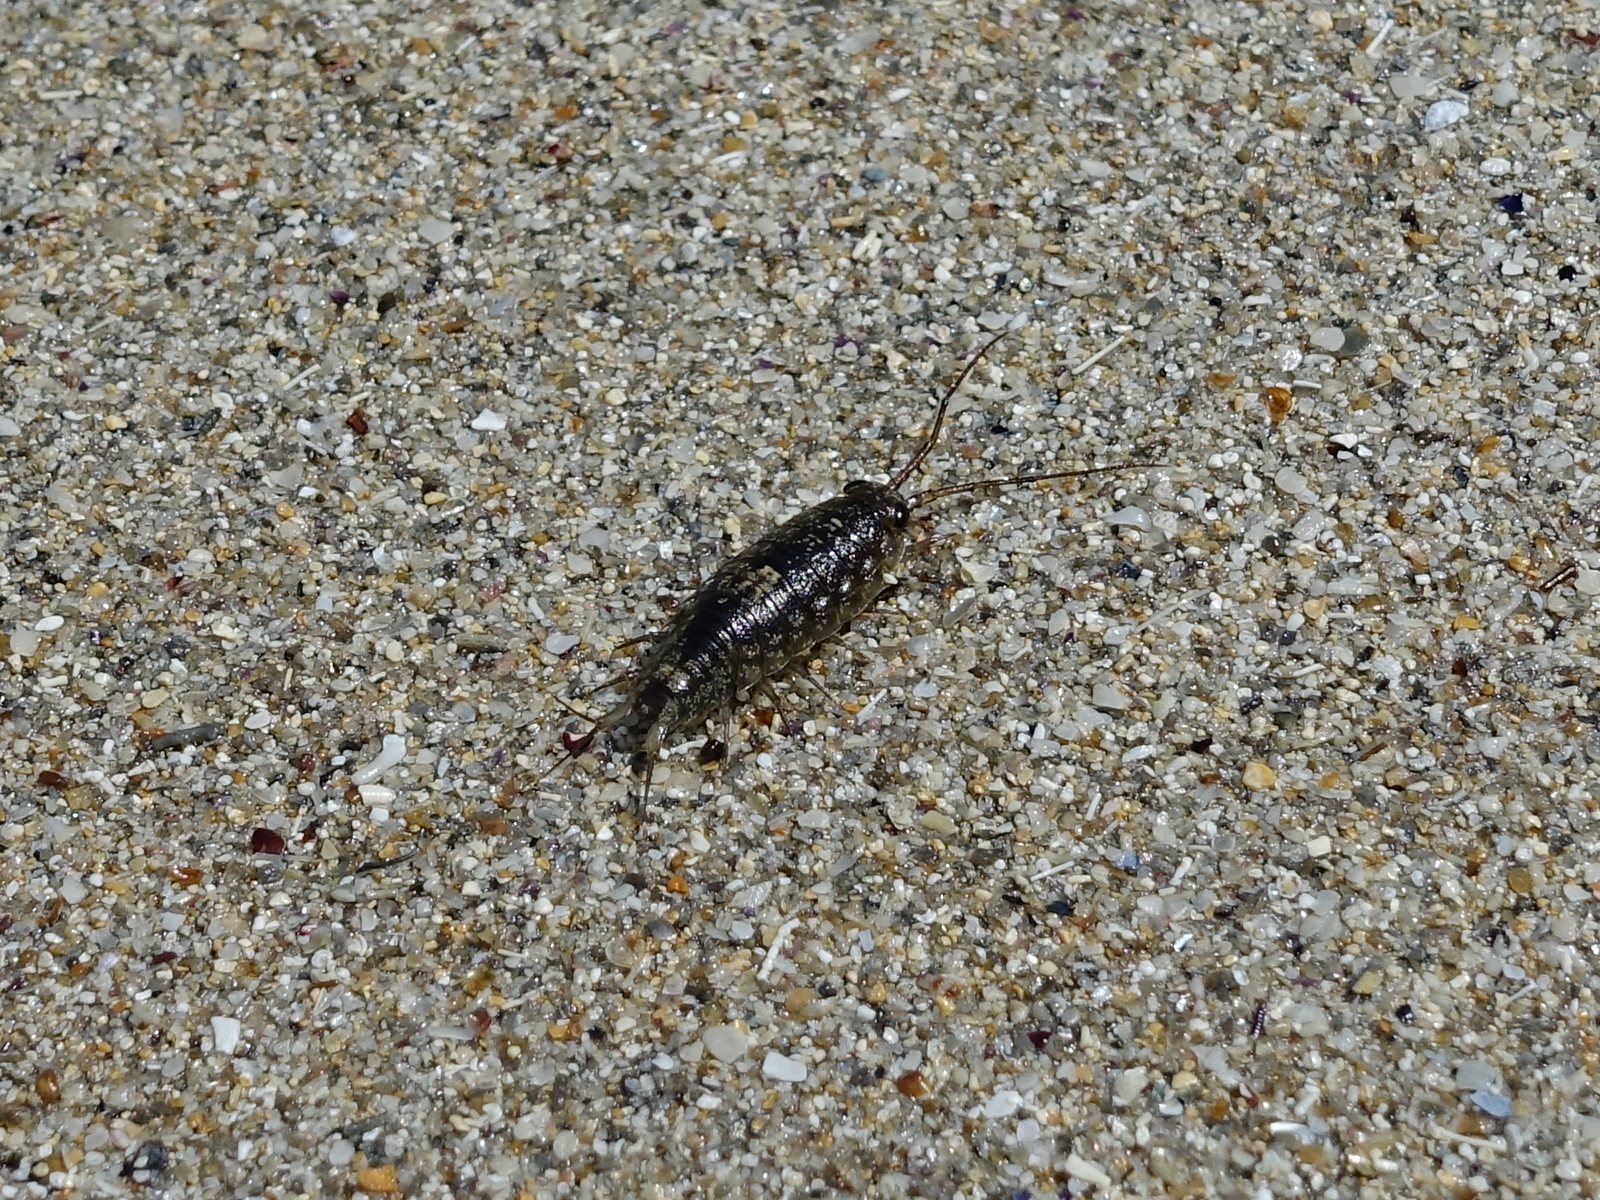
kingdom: Animalia
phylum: Arthropoda
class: Malacostraca
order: Isopoda
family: Ligiidae
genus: Ligia
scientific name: Ligia australiensis
